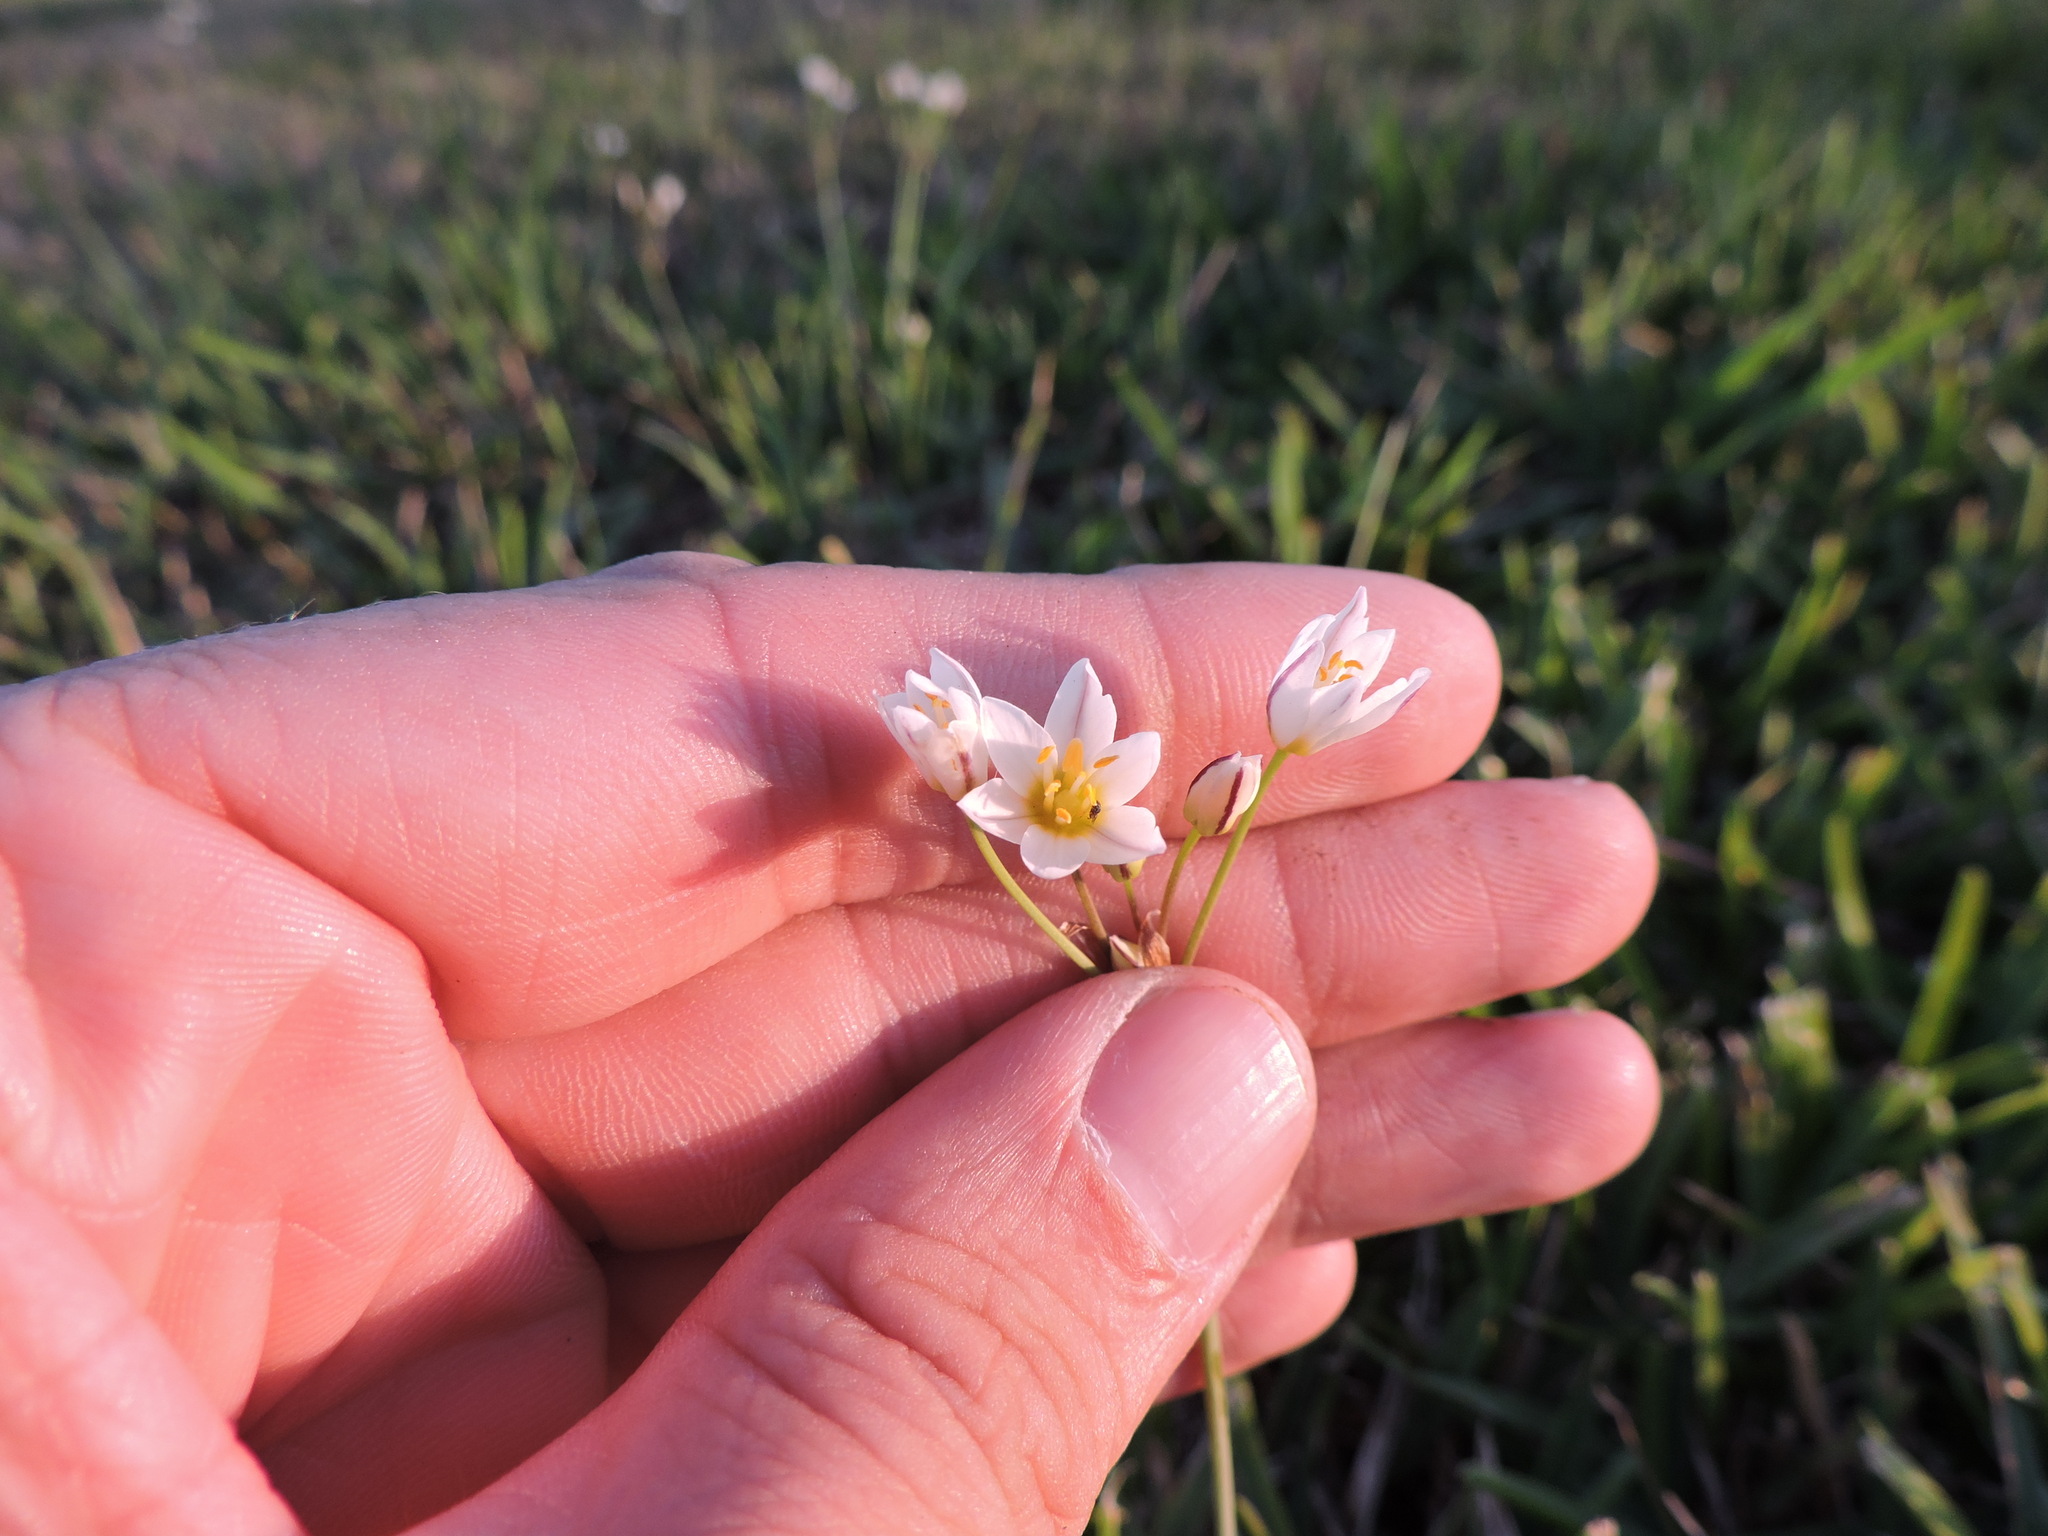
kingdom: Plantae
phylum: Tracheophyta
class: Liliopsida
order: Asparagales
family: Amaryllidaceae
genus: Nothoscordum
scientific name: Nothoscordum bivalve
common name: Crow-poison
